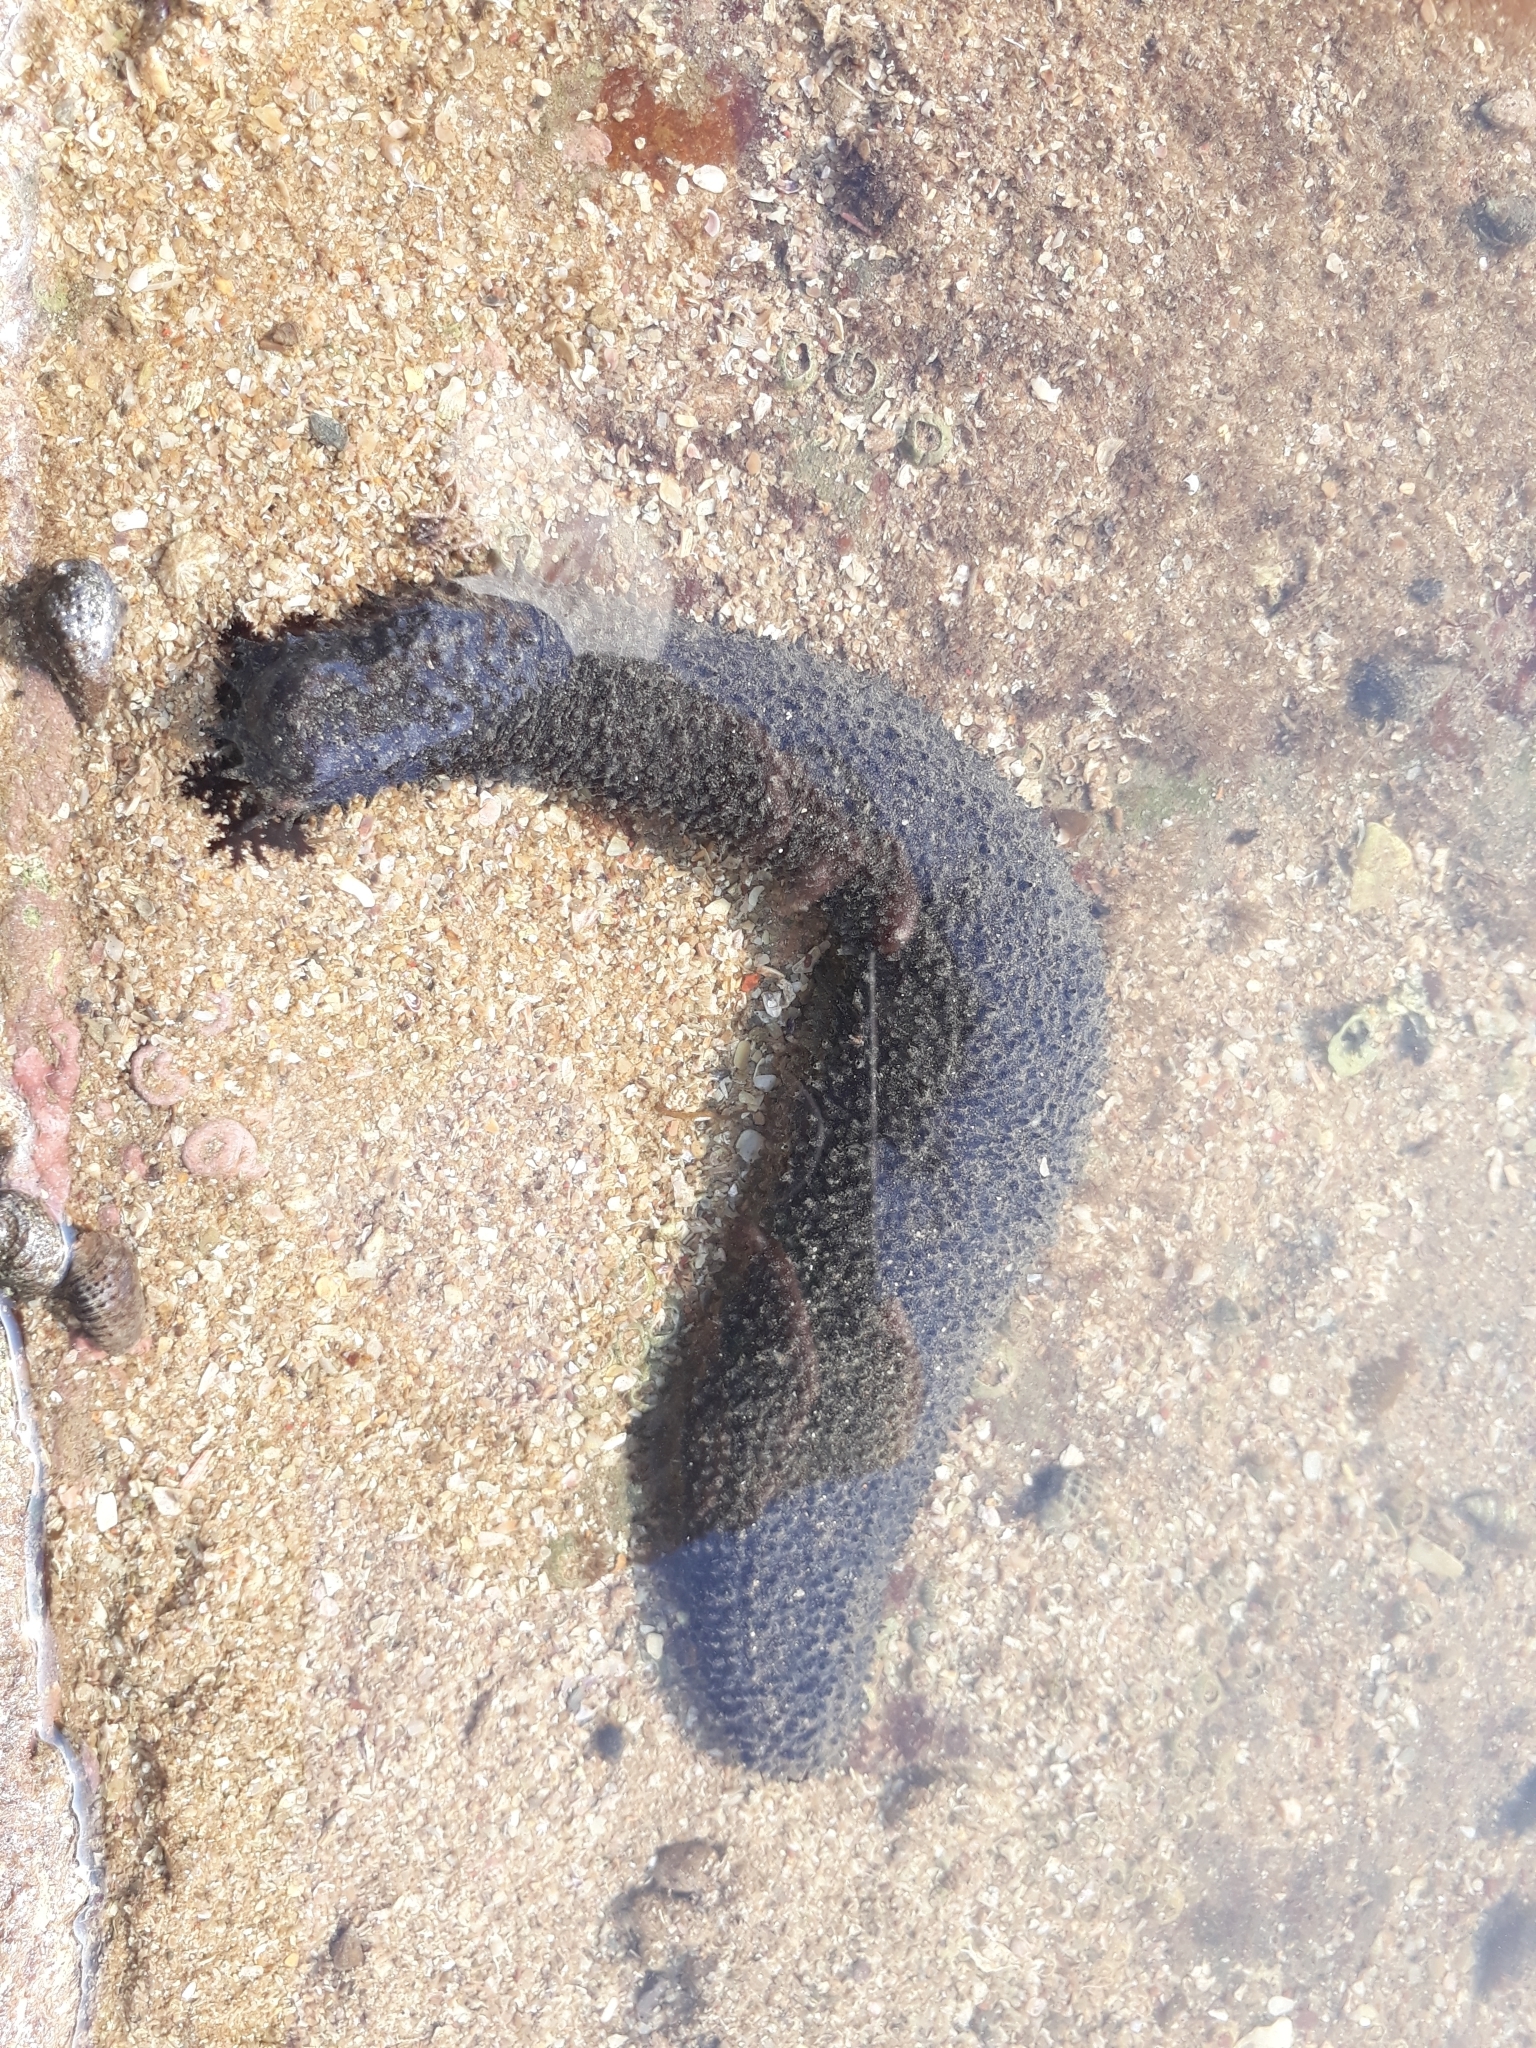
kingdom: Animalia
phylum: Echinodermata
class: Holothuroidea
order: Holothuriida
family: Holothuriidae
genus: Holothuria
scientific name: Holothuria leucospilota
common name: White thread fish
